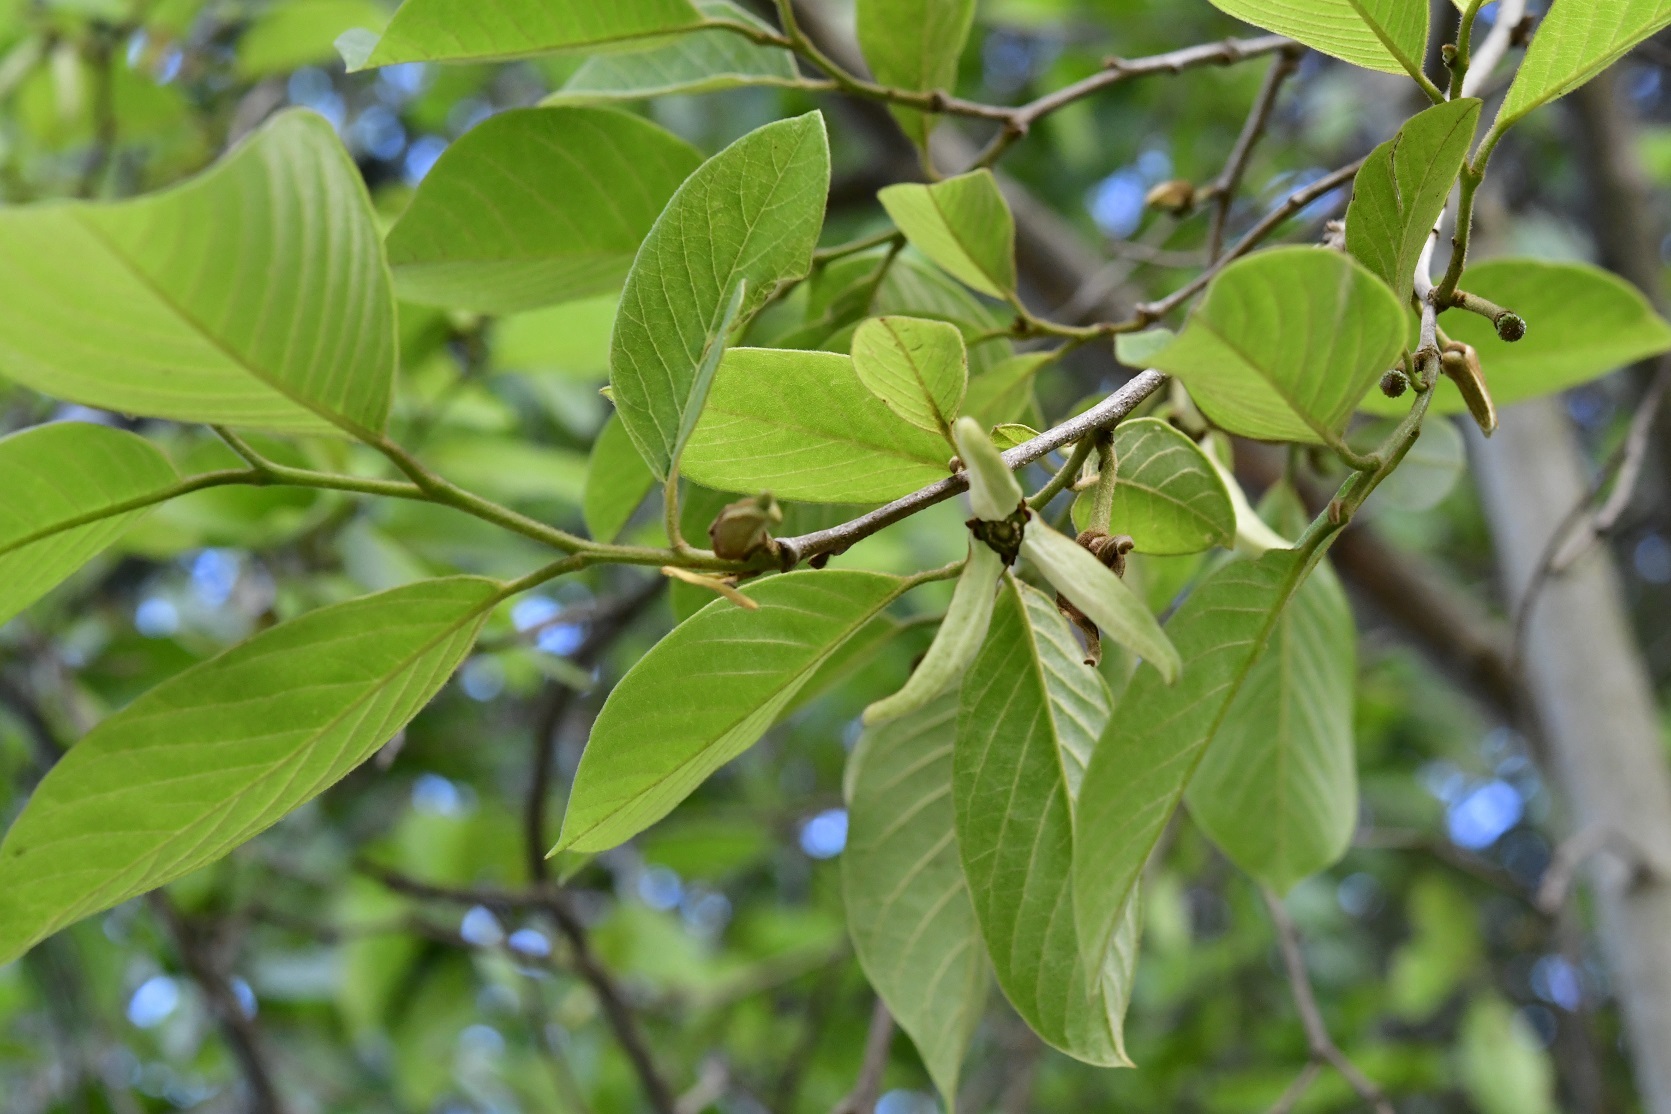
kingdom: Plantae
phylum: Tracheophyta
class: Magnoliopsida
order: Magnoliales
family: Annonaceae
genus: Annona
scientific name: Annona cherimola
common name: Cherimoya
